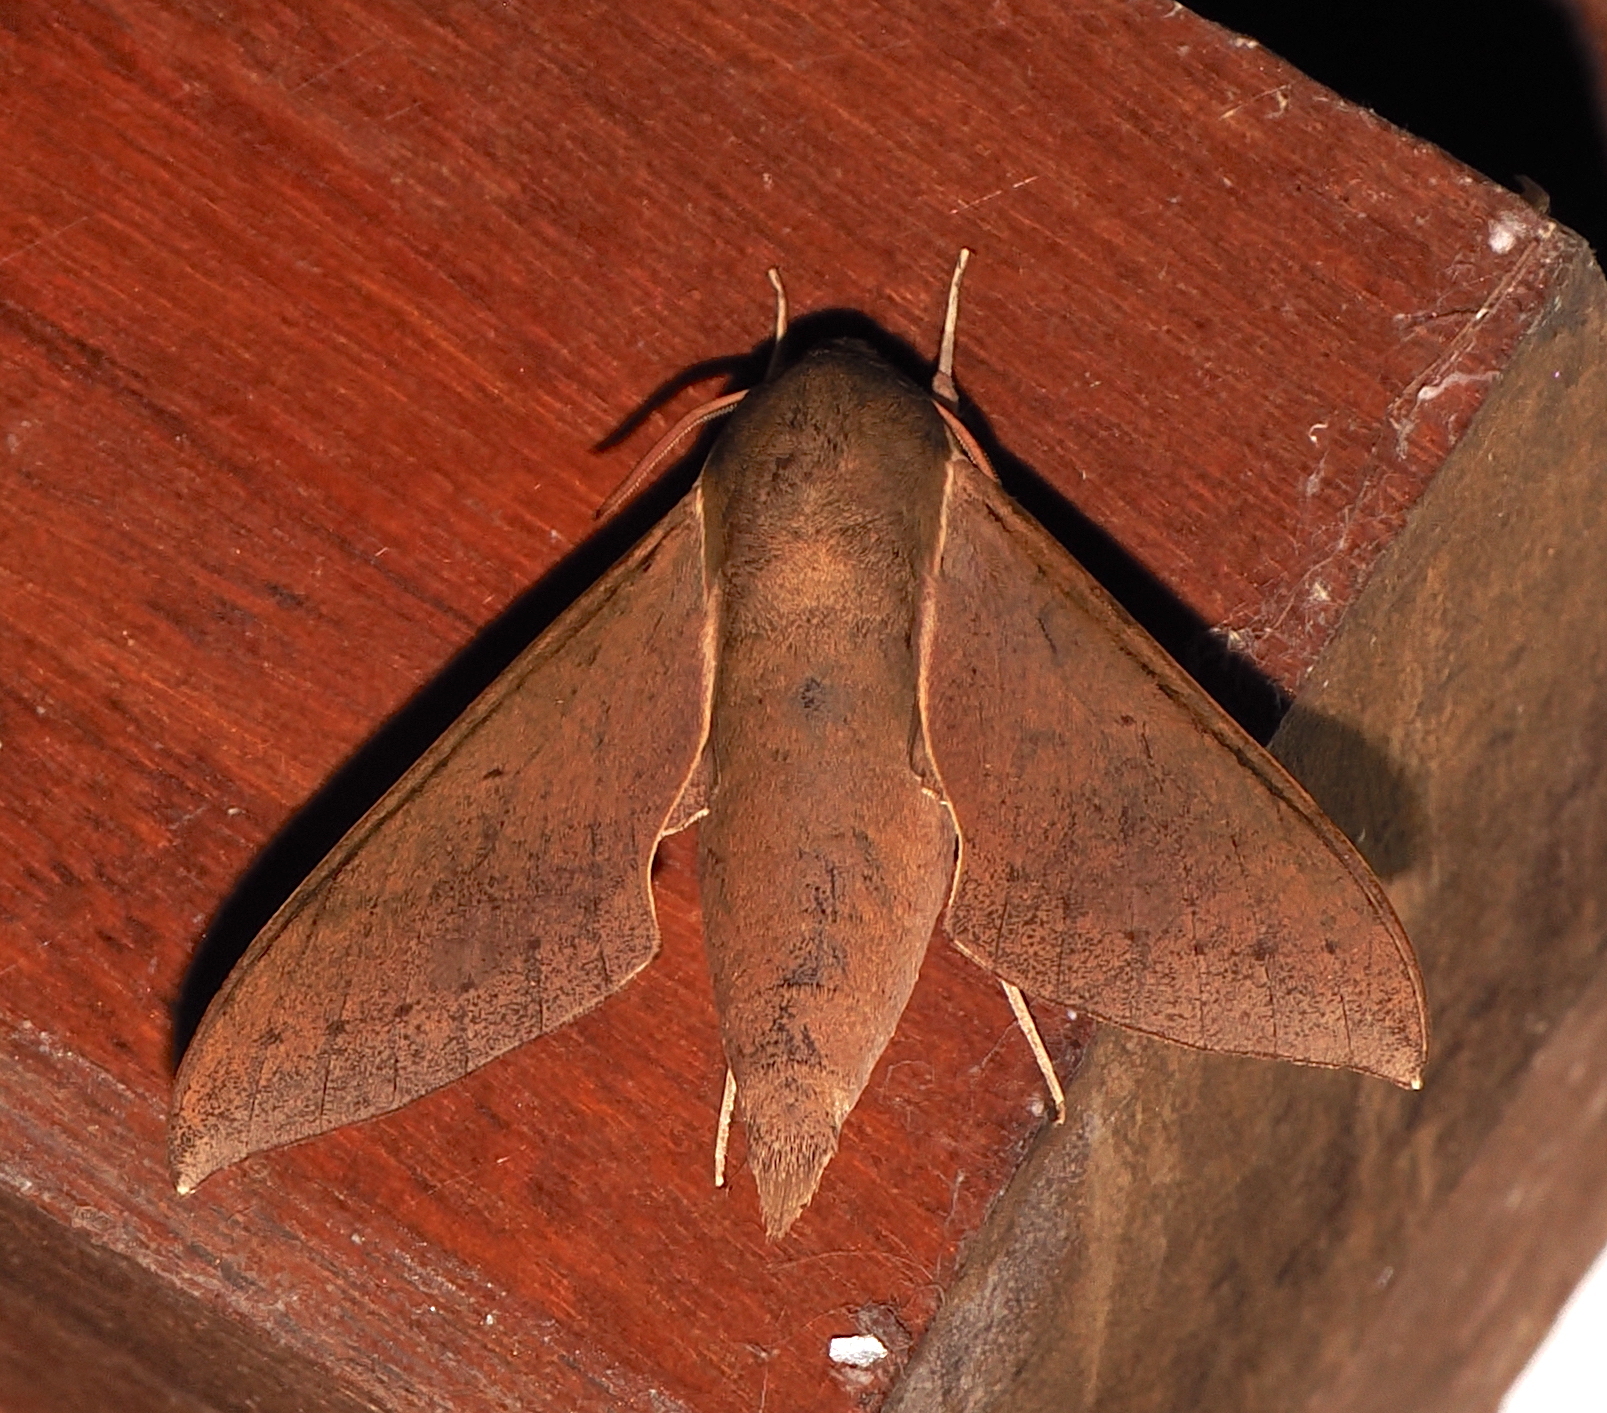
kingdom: Animalia
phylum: Arthropoda
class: Insecta
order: Lepidoptera
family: Sphingidae
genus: Xylophanes
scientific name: Xylophanes porcus
